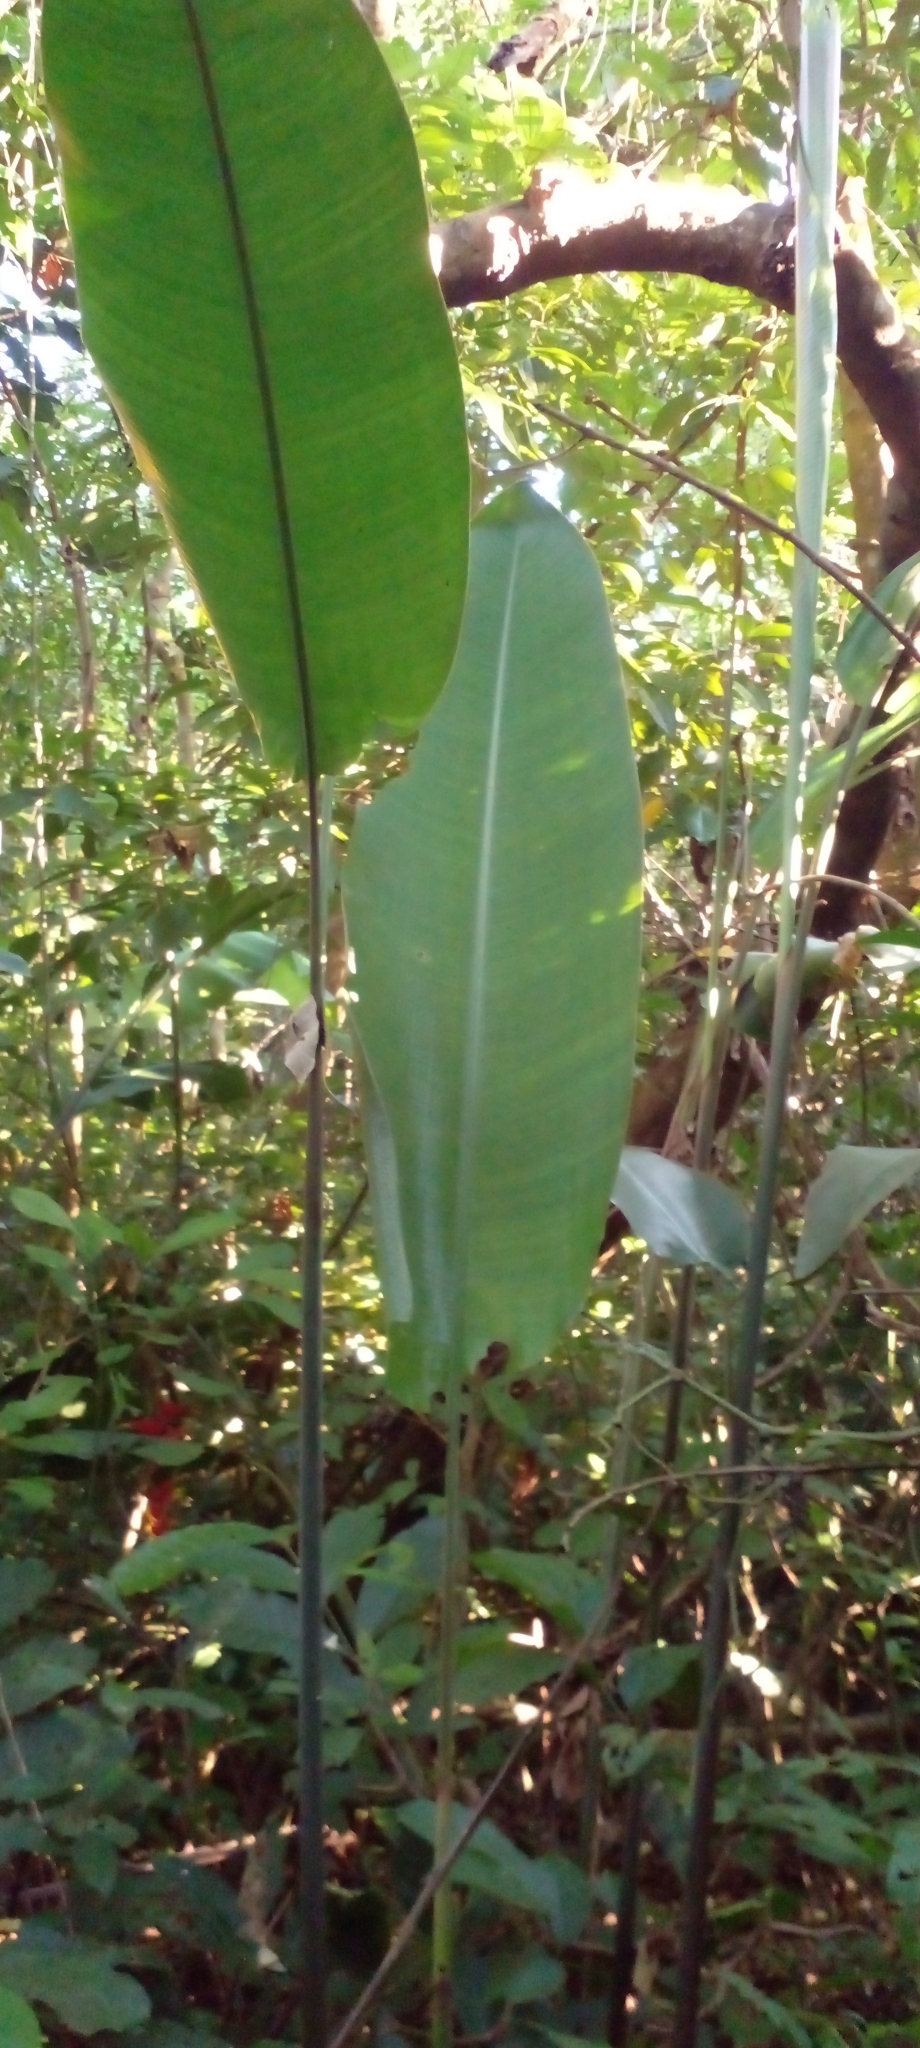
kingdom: Plantae
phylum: Tracheophyta
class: Liliopsida
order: Zingiberales
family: Heliconiaceae
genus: Heliconia
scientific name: Heliconia rostrata
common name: False bird of paradise
